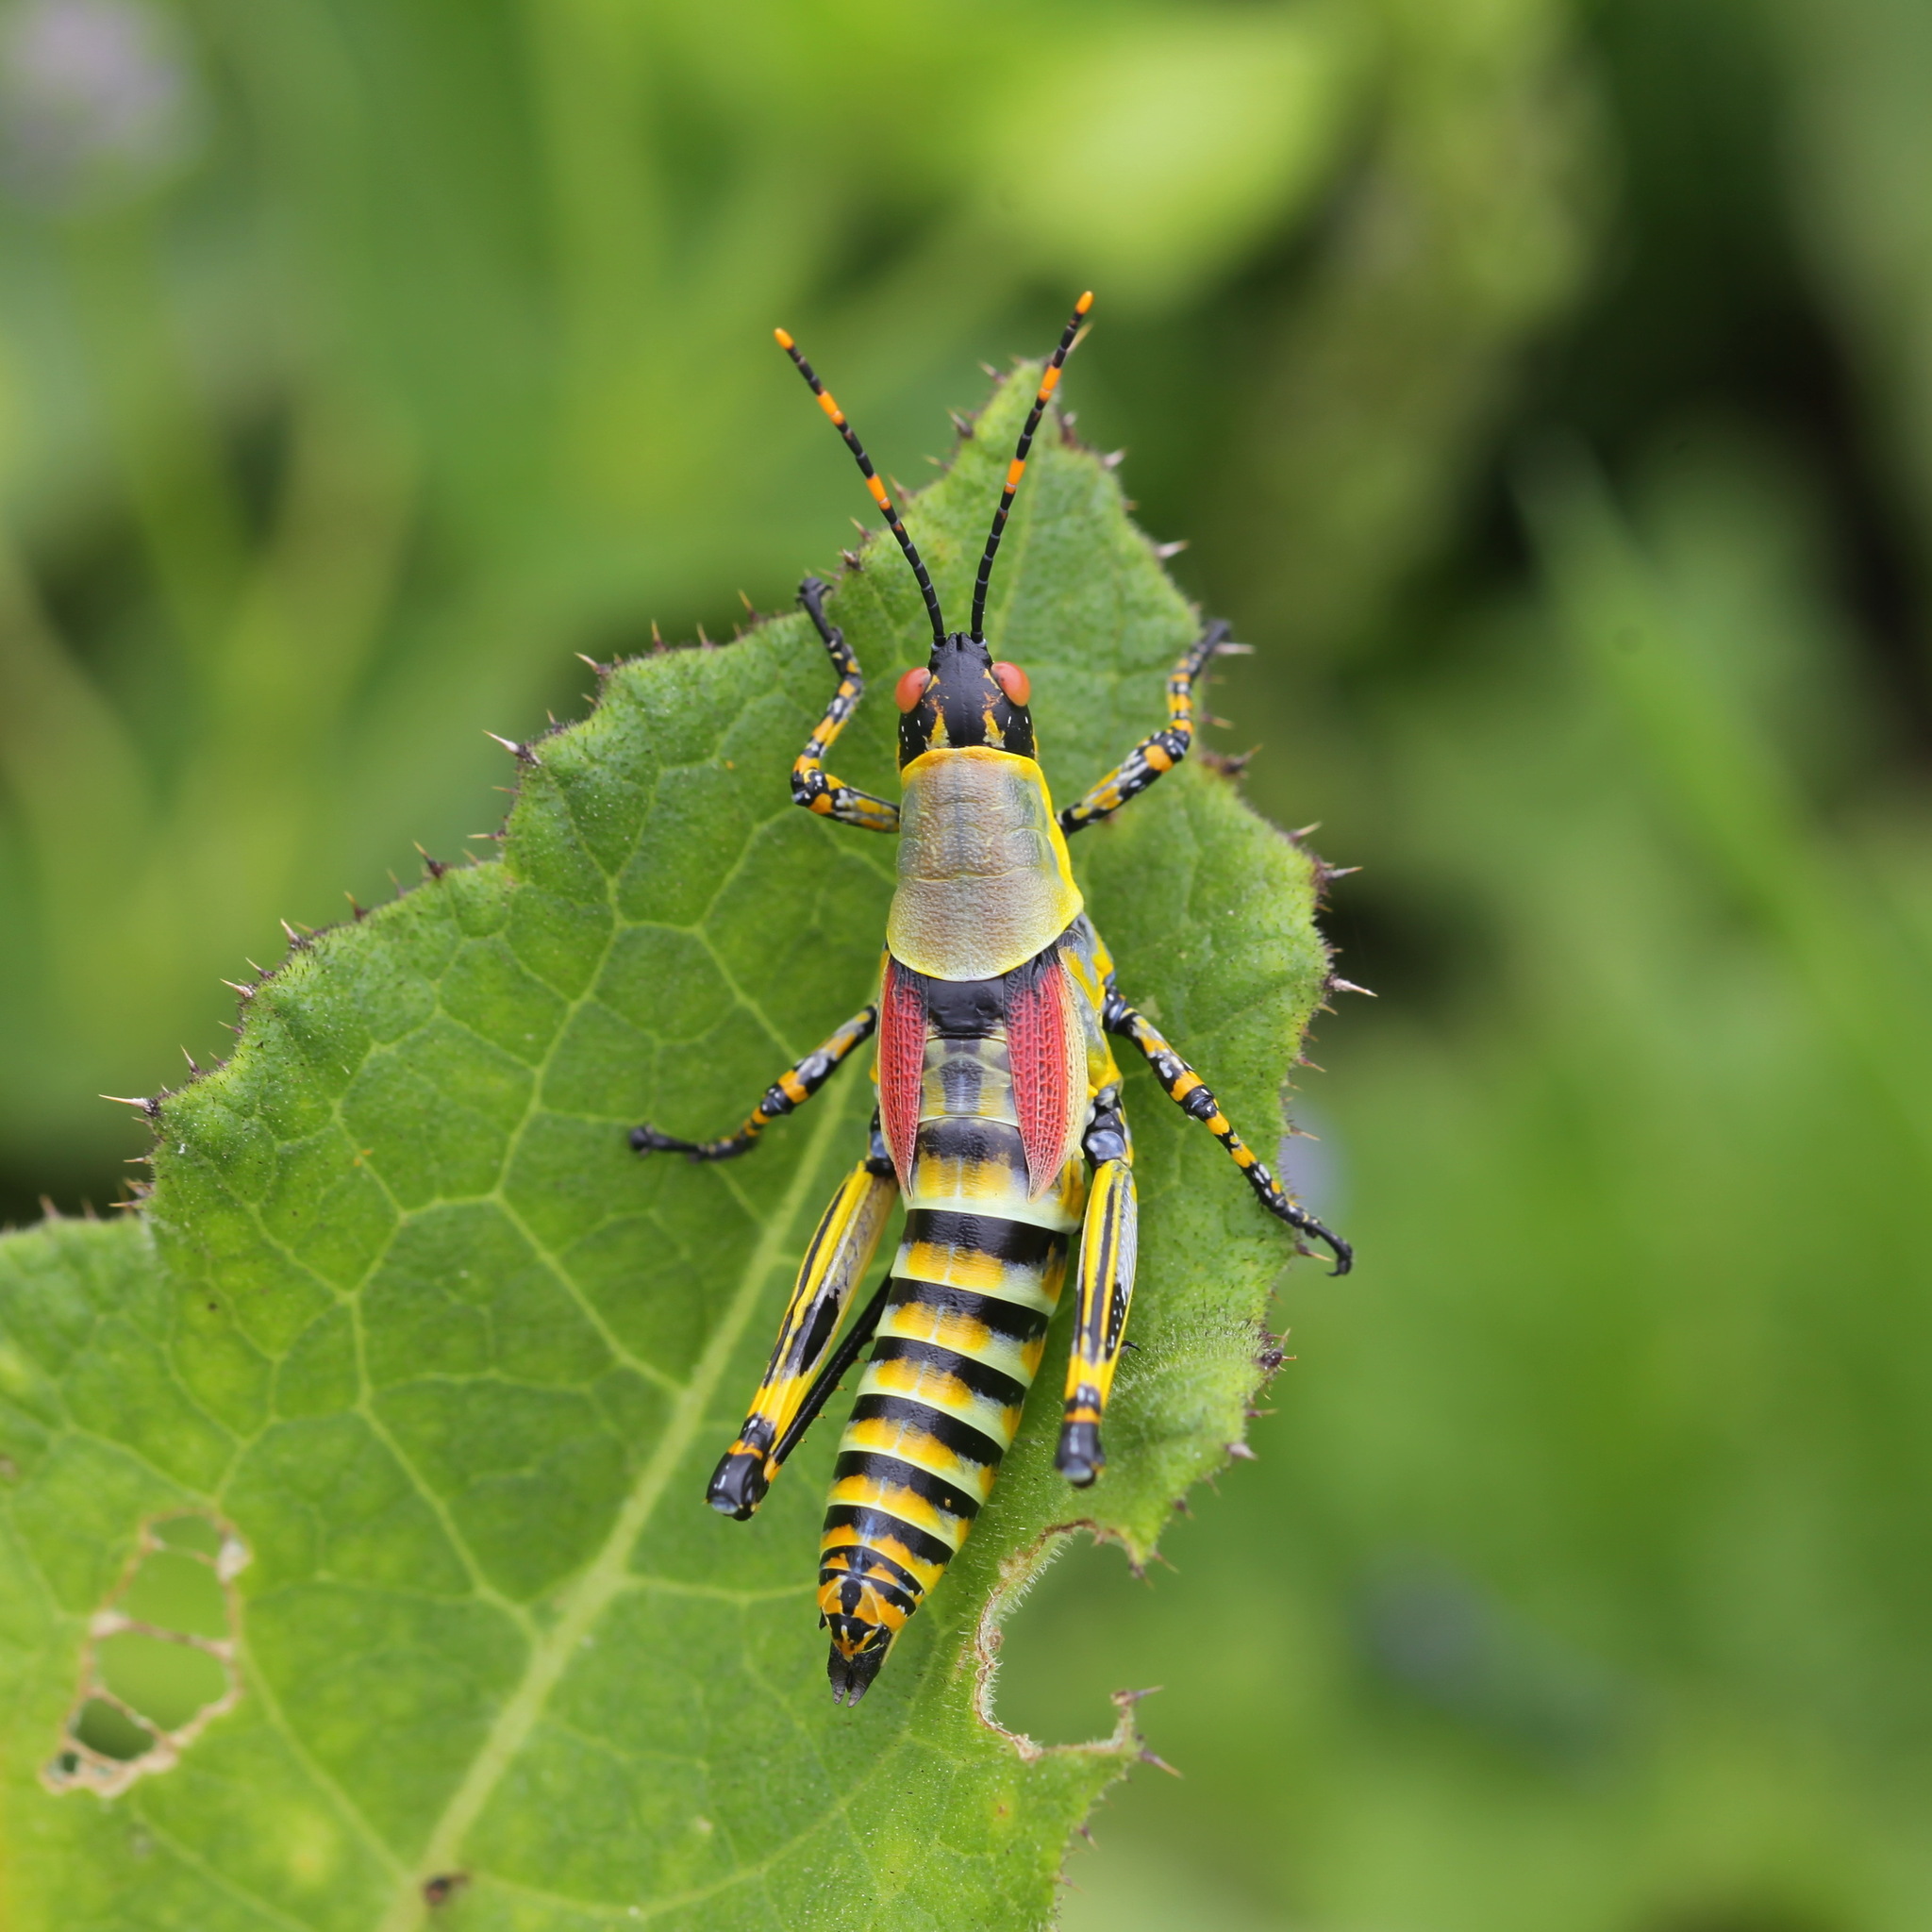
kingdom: Animalia
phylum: Arthropoda
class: Insecta
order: Orthoptera
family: Pyrgomorphidae
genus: Zonocerus
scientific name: Zonocerus elegans
